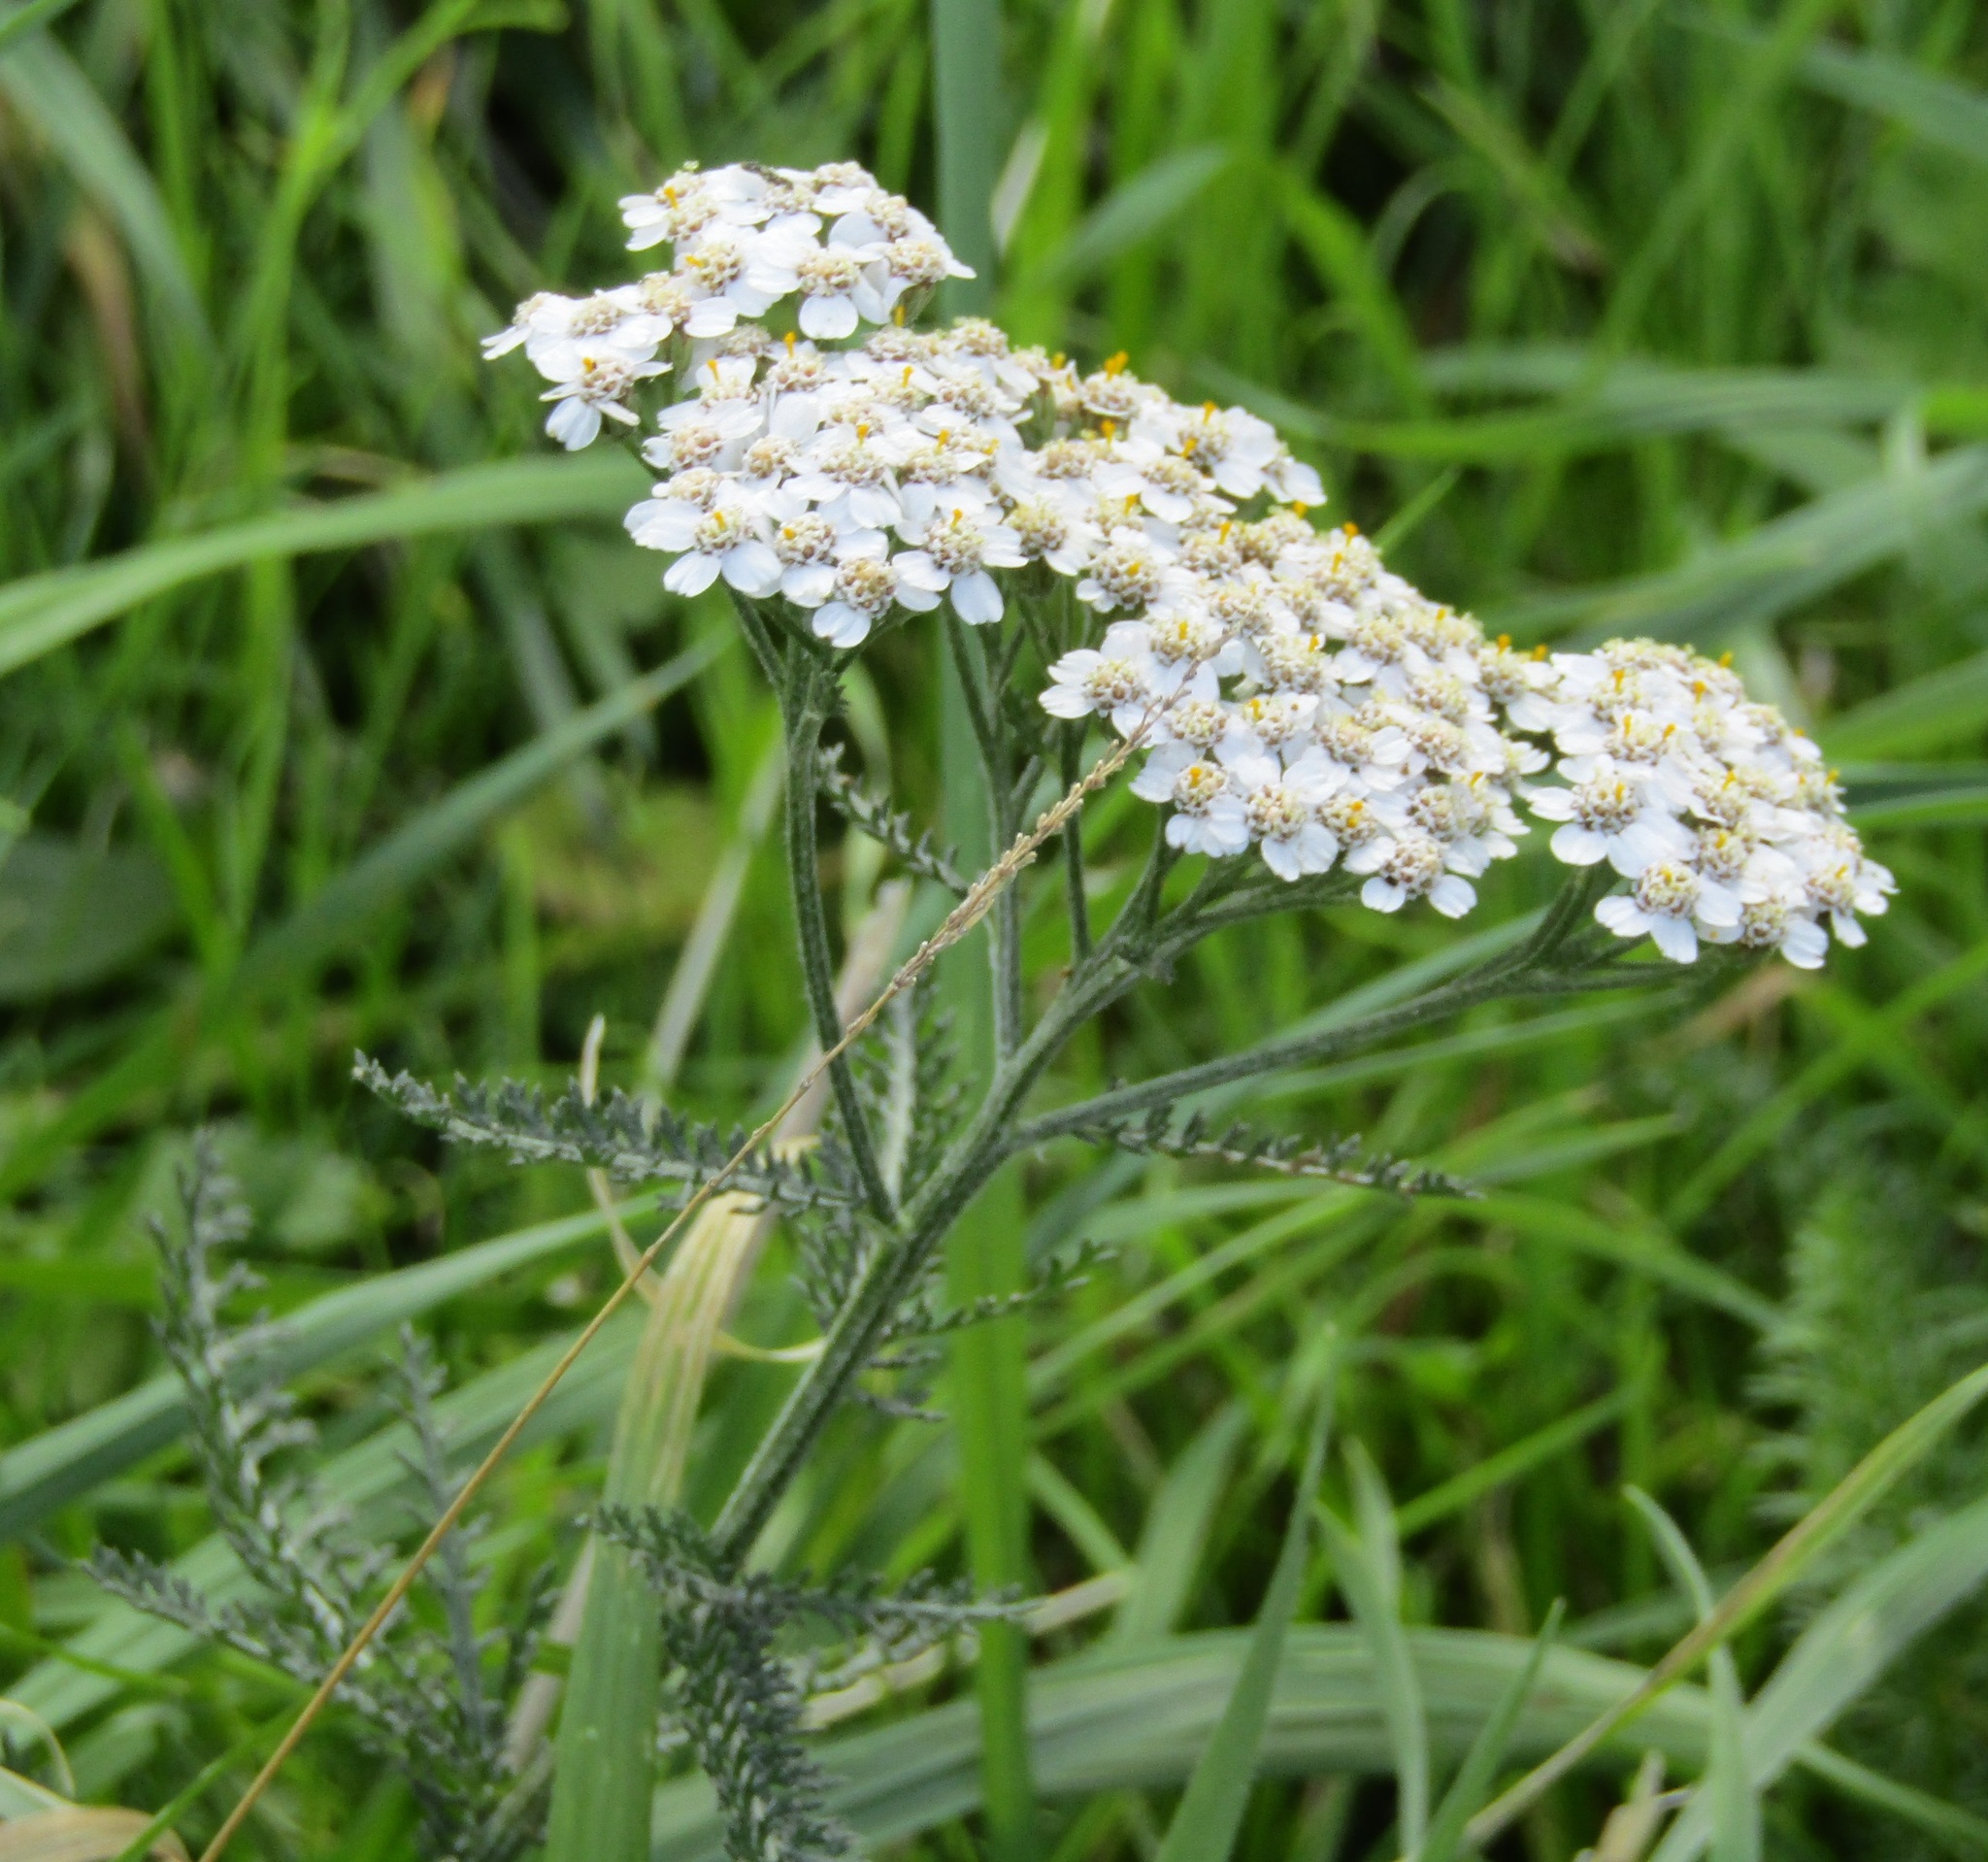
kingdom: Plantae
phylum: Tracheophyta
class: Magnoliopsida
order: Asterales
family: Asteraceae
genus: Achillea
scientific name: Achillea millefolium
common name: Yarrow
